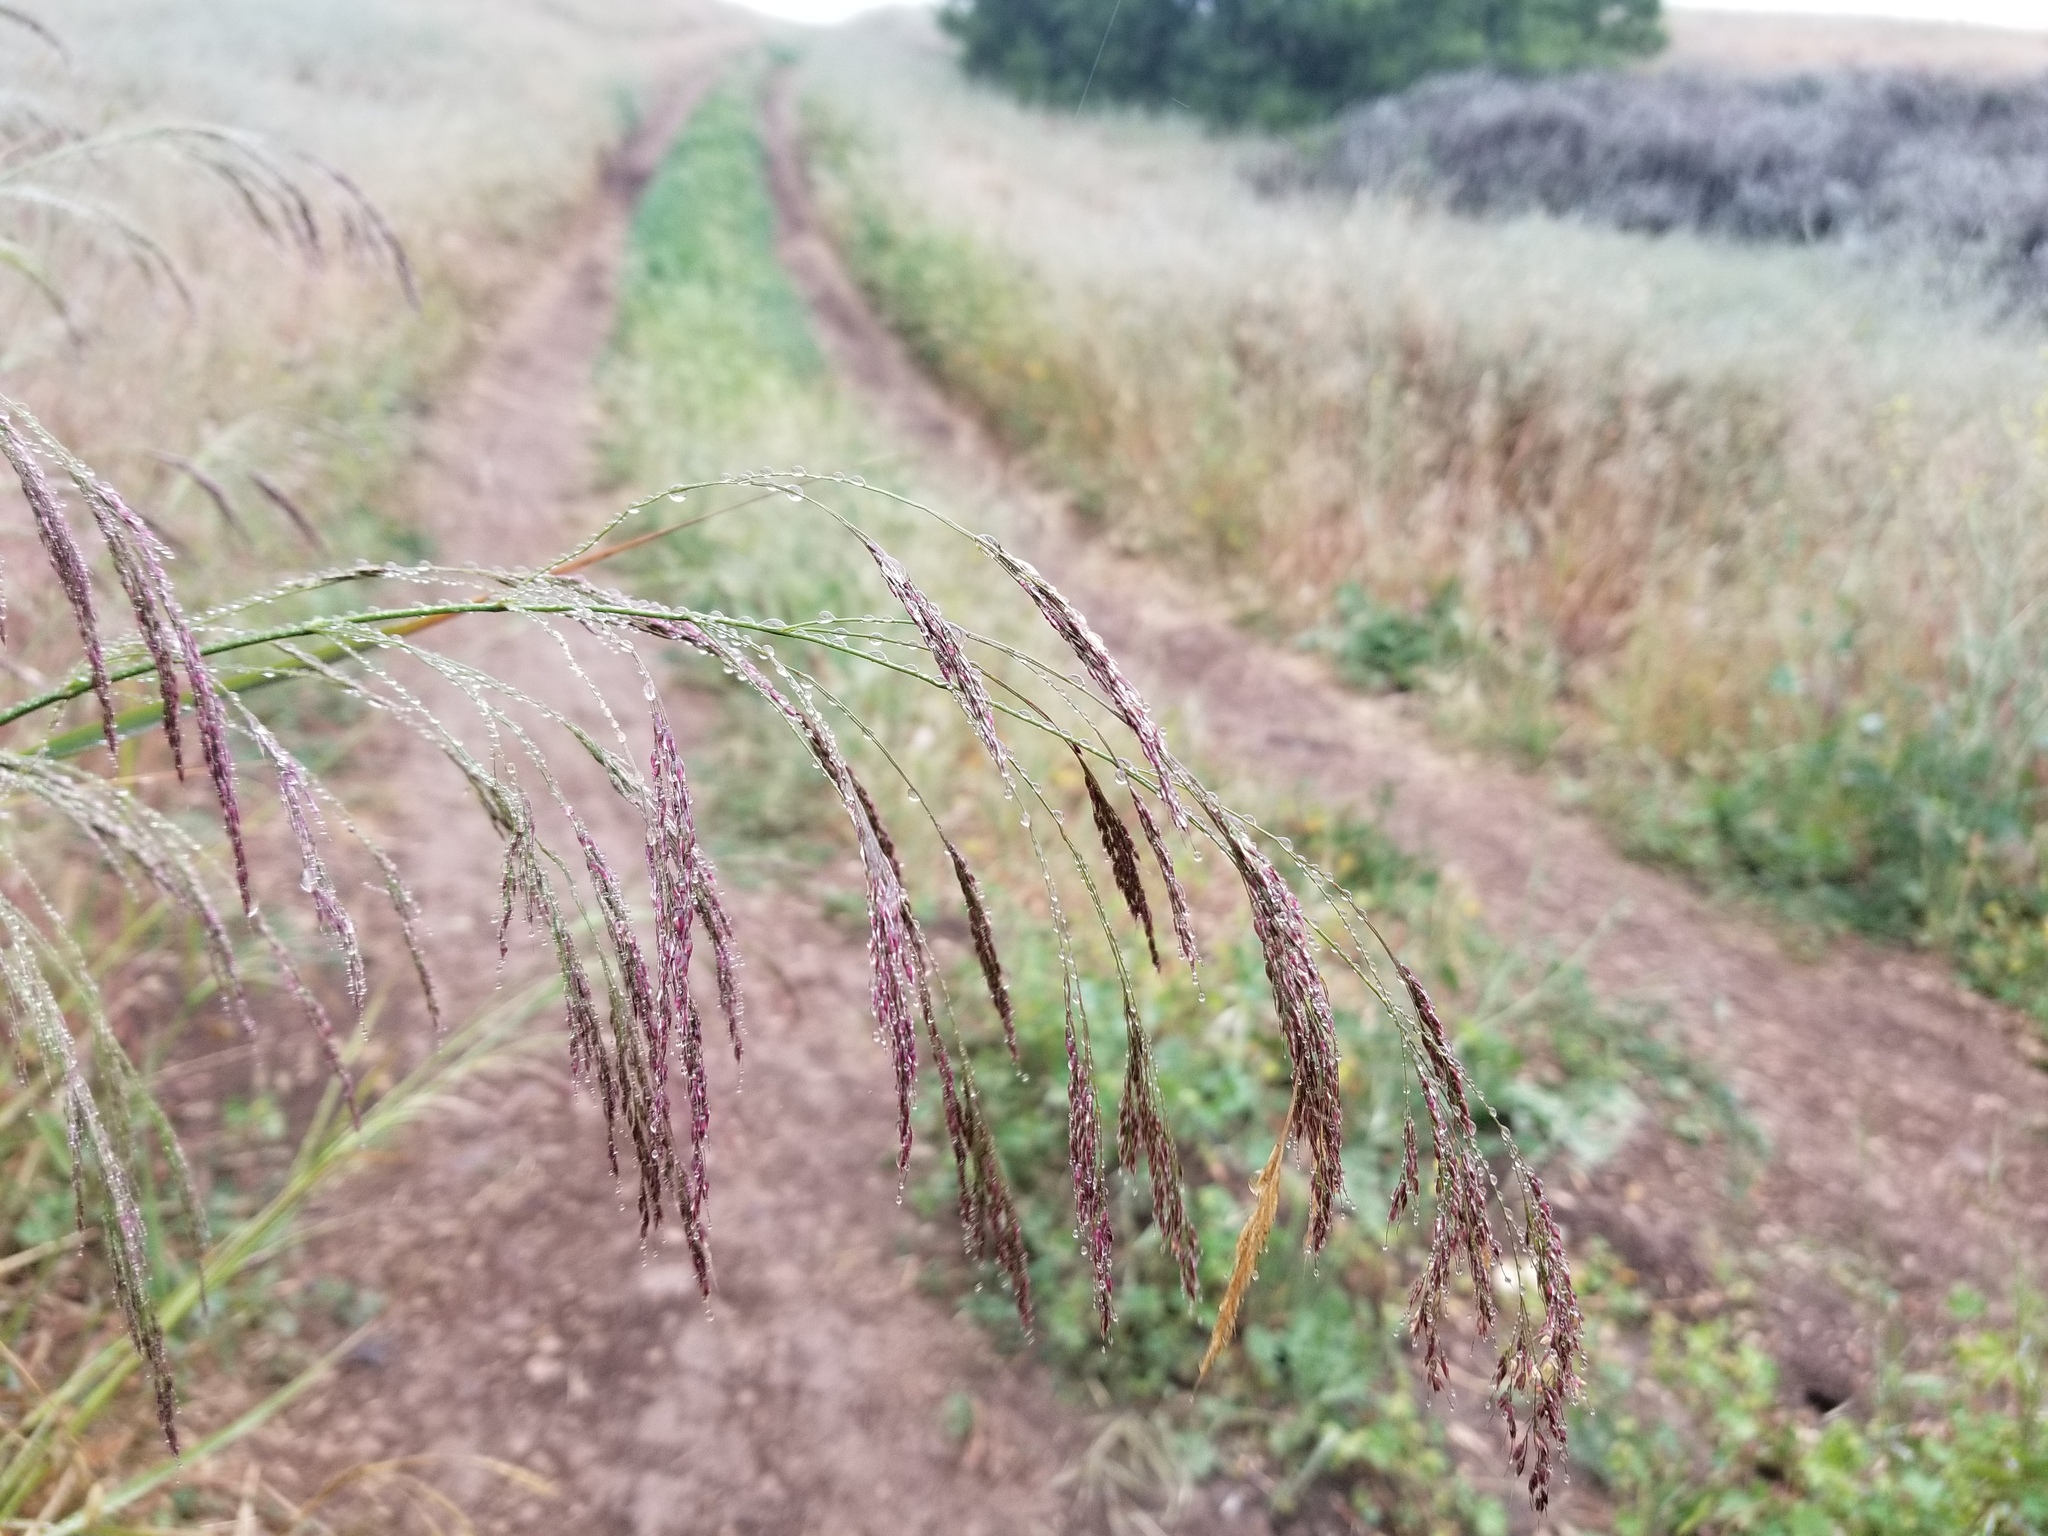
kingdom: Plantae
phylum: Tracheophyta
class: Liliopsida
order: Poales
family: Poaceae
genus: Oloptum
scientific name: Oloptum miliaceum
